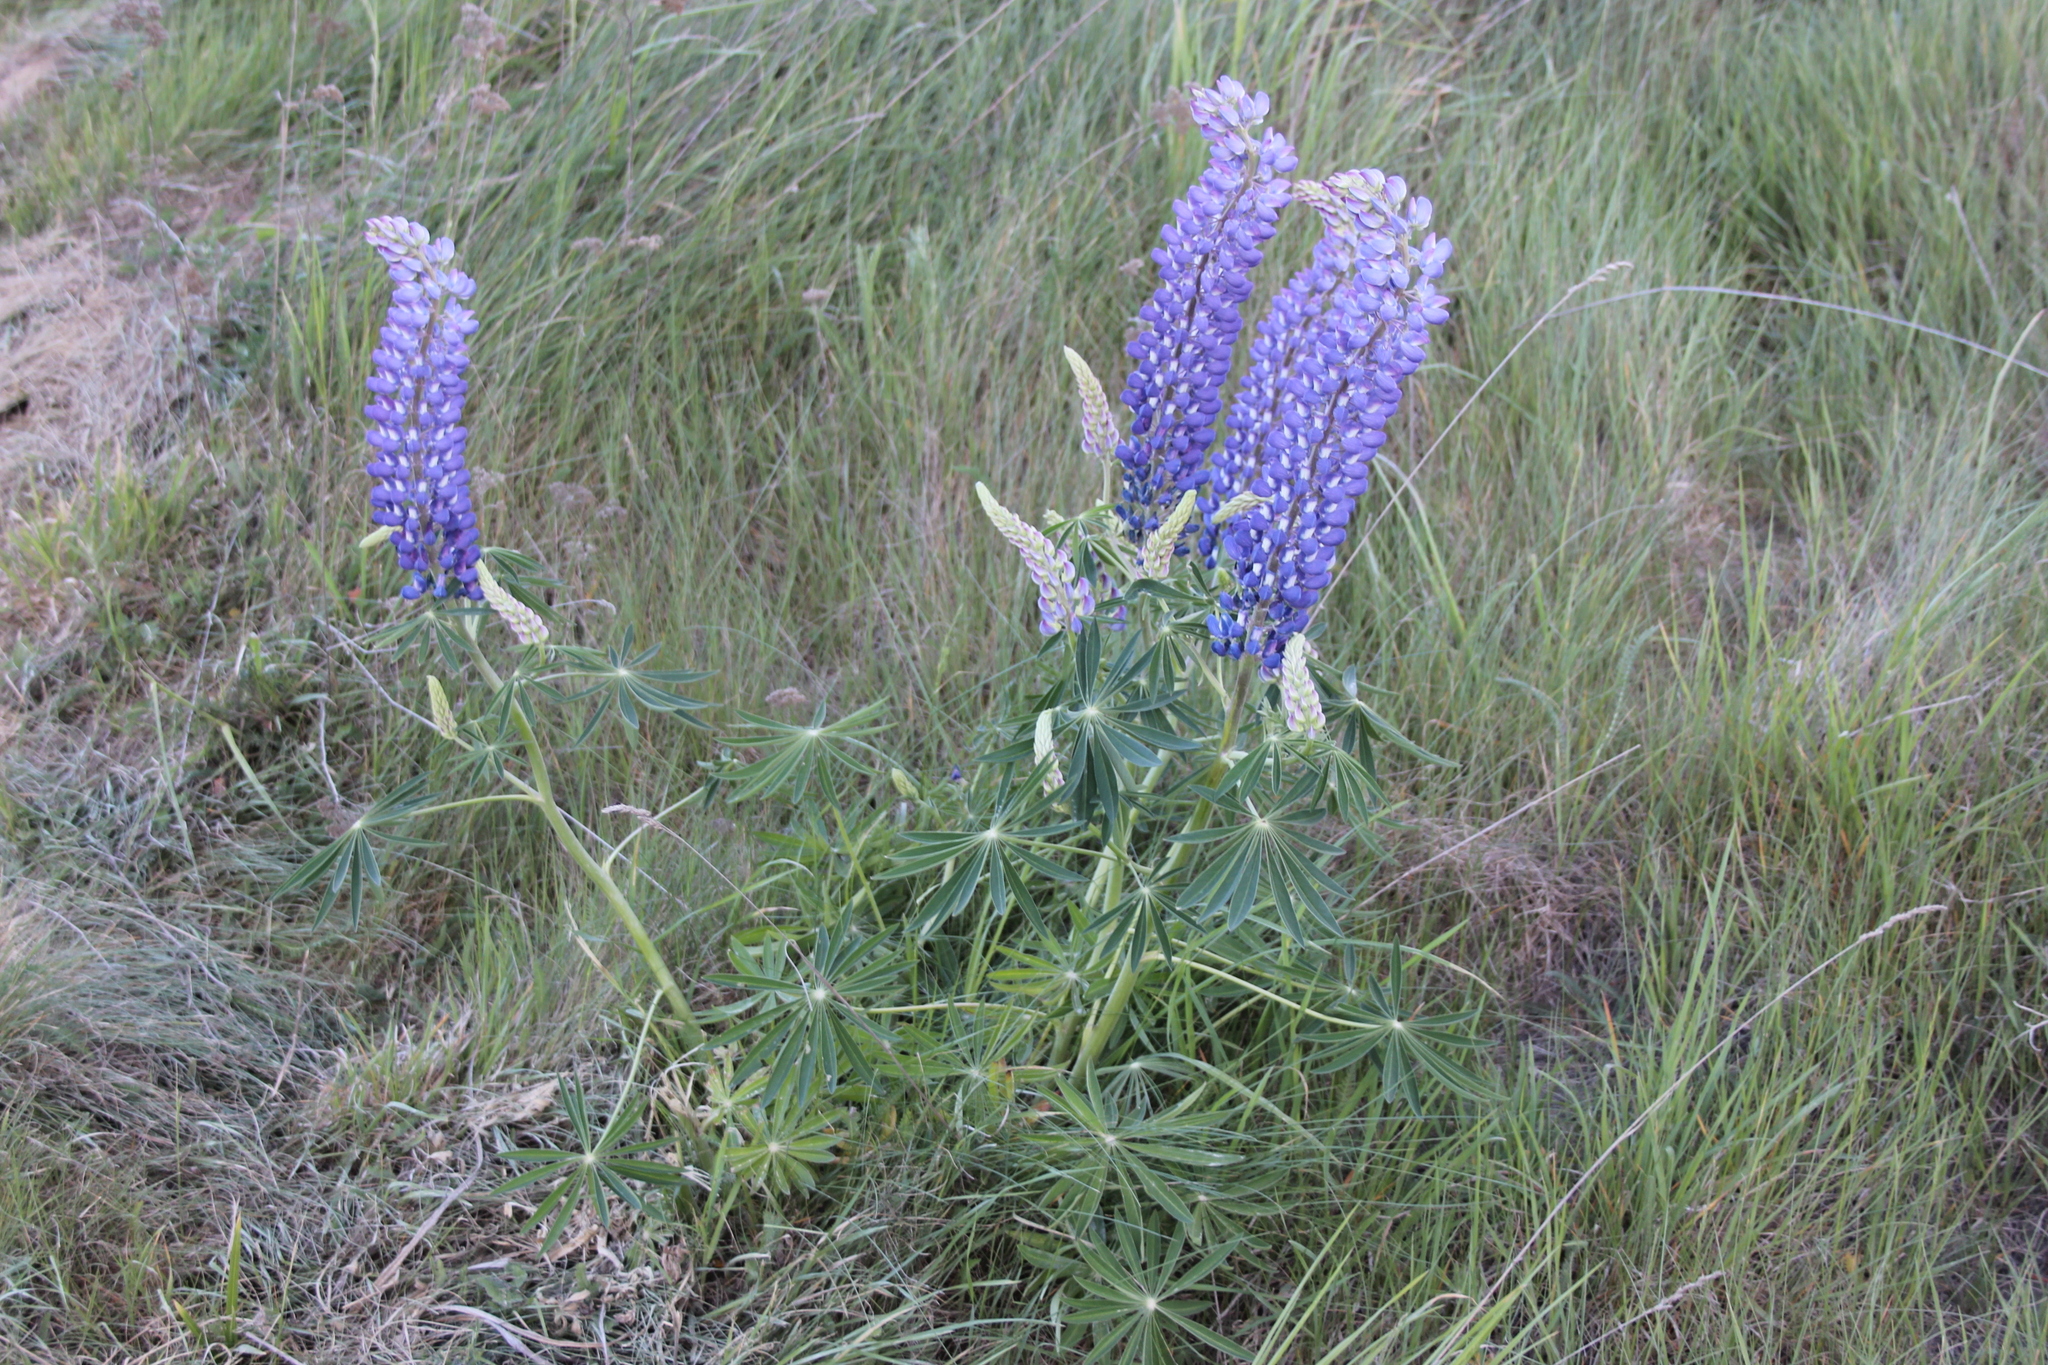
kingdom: Plantae
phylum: Tracheophyta
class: Magnoliopsida
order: Fabales
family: Fabaceae
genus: Lupinus
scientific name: Lupinus polyphyllus
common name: Garden lupin
